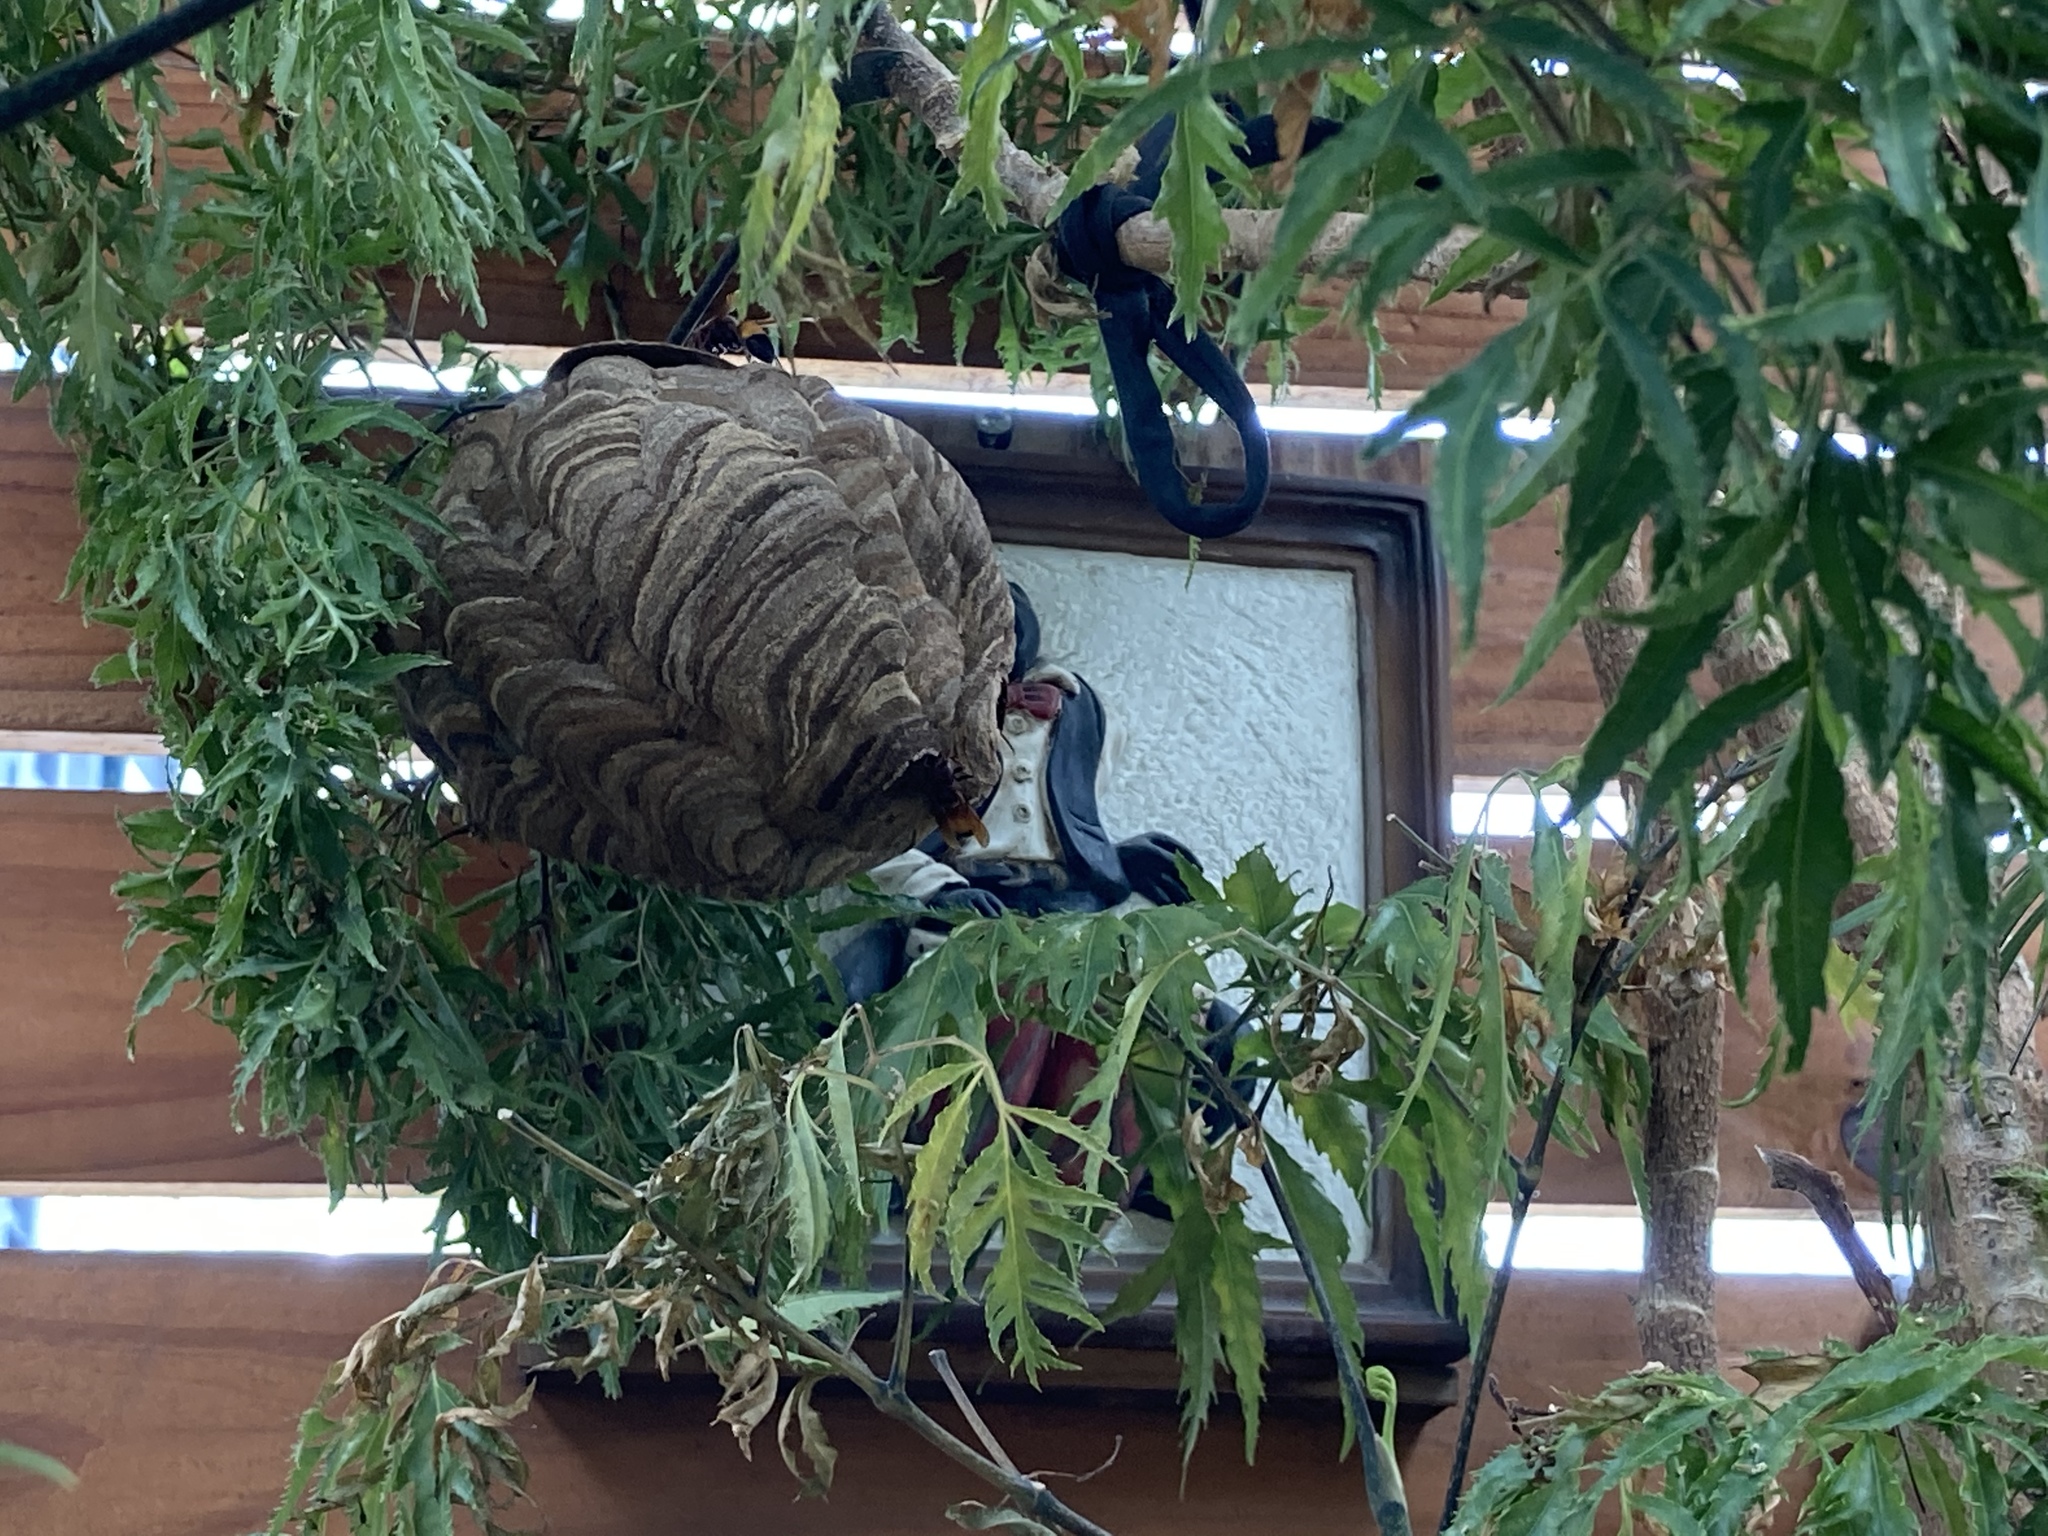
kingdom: Animalia
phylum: Arthropoda
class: Insecta
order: Hymenoptera
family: Vespidae
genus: Vespa
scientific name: Vespa affinis
